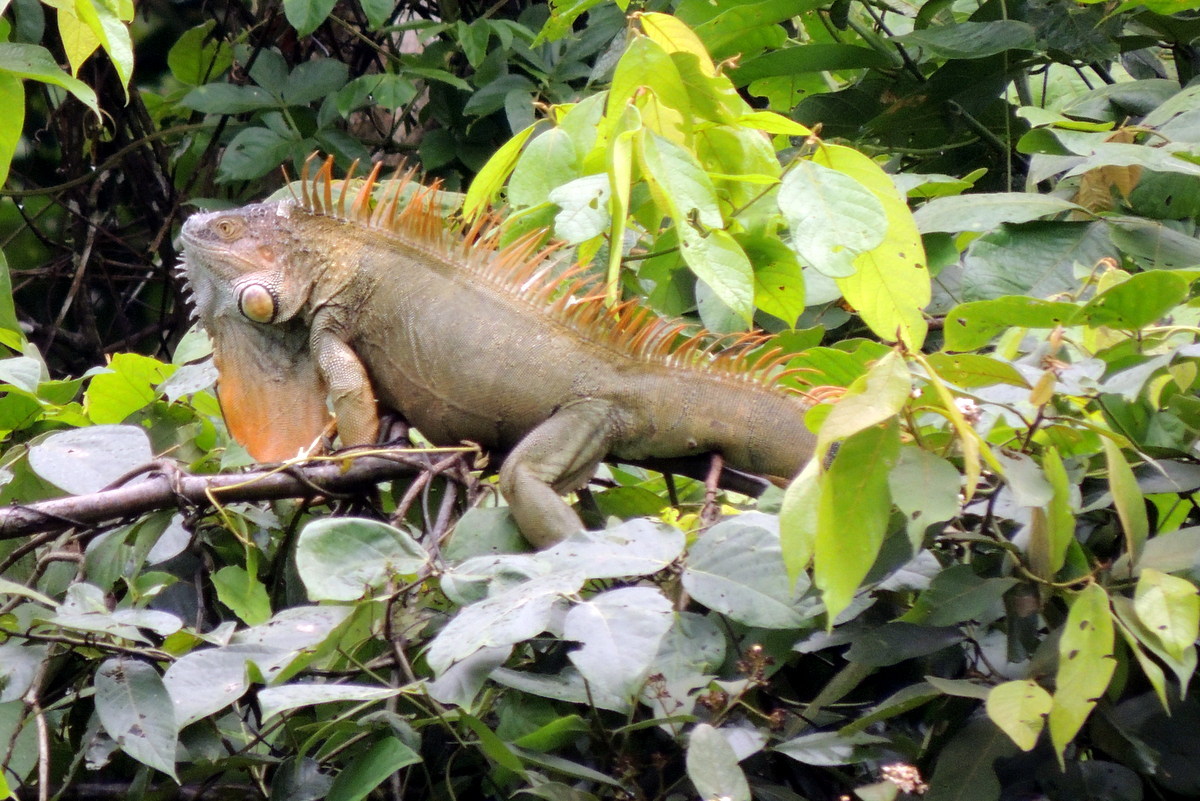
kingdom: Animalia
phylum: Chordata
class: Squamata
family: Iguanidae
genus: Iguana
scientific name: Iguana iguana
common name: Green iguana
